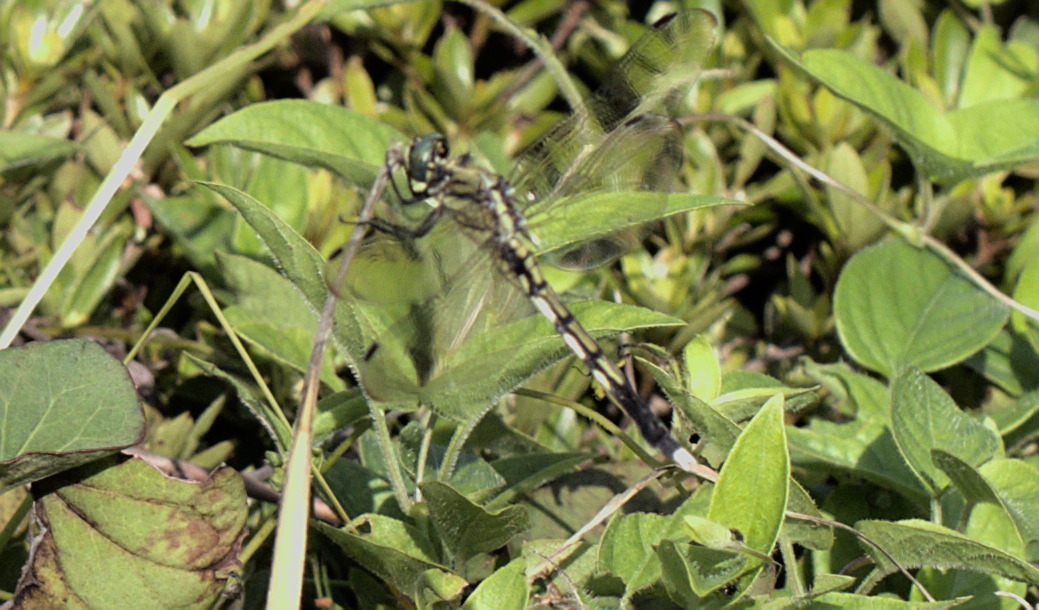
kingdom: Animalia
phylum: Arthropoda
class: Insecta
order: Odonata
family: Libellulidae
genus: Orthetrum
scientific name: Orthetrum albistylum
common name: White-tailed skimmer
